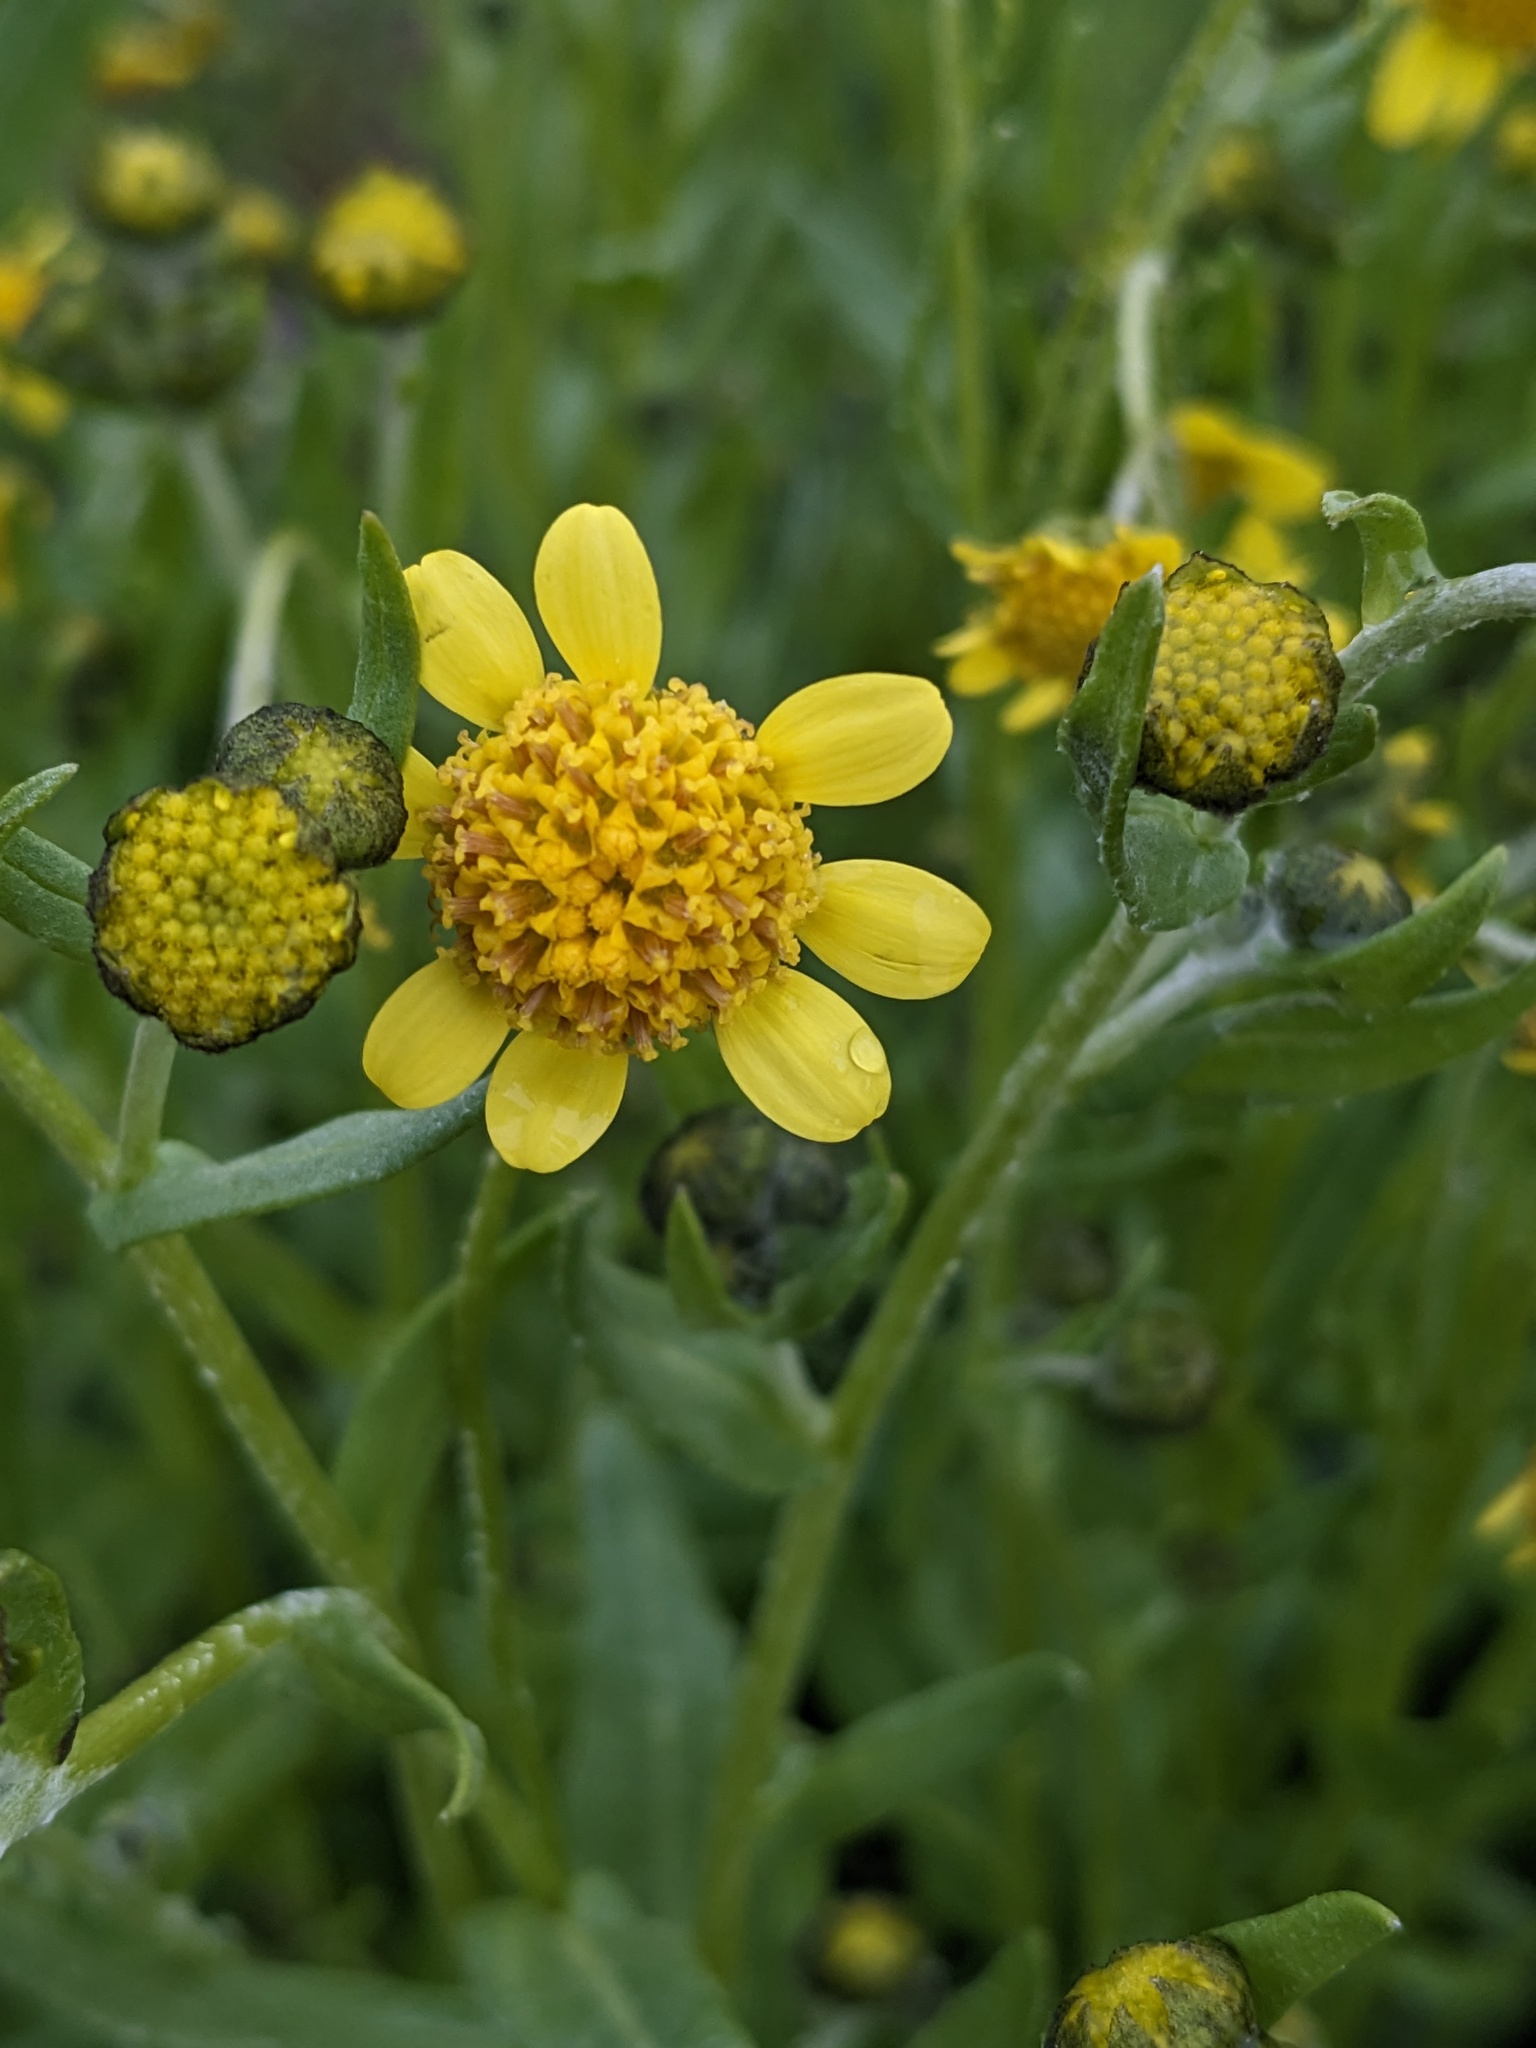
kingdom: Plantae
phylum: Tracheophyta
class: Magnoliopsida
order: Asterales
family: Asteraceae
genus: Monolopia
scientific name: Monolopia stricta
